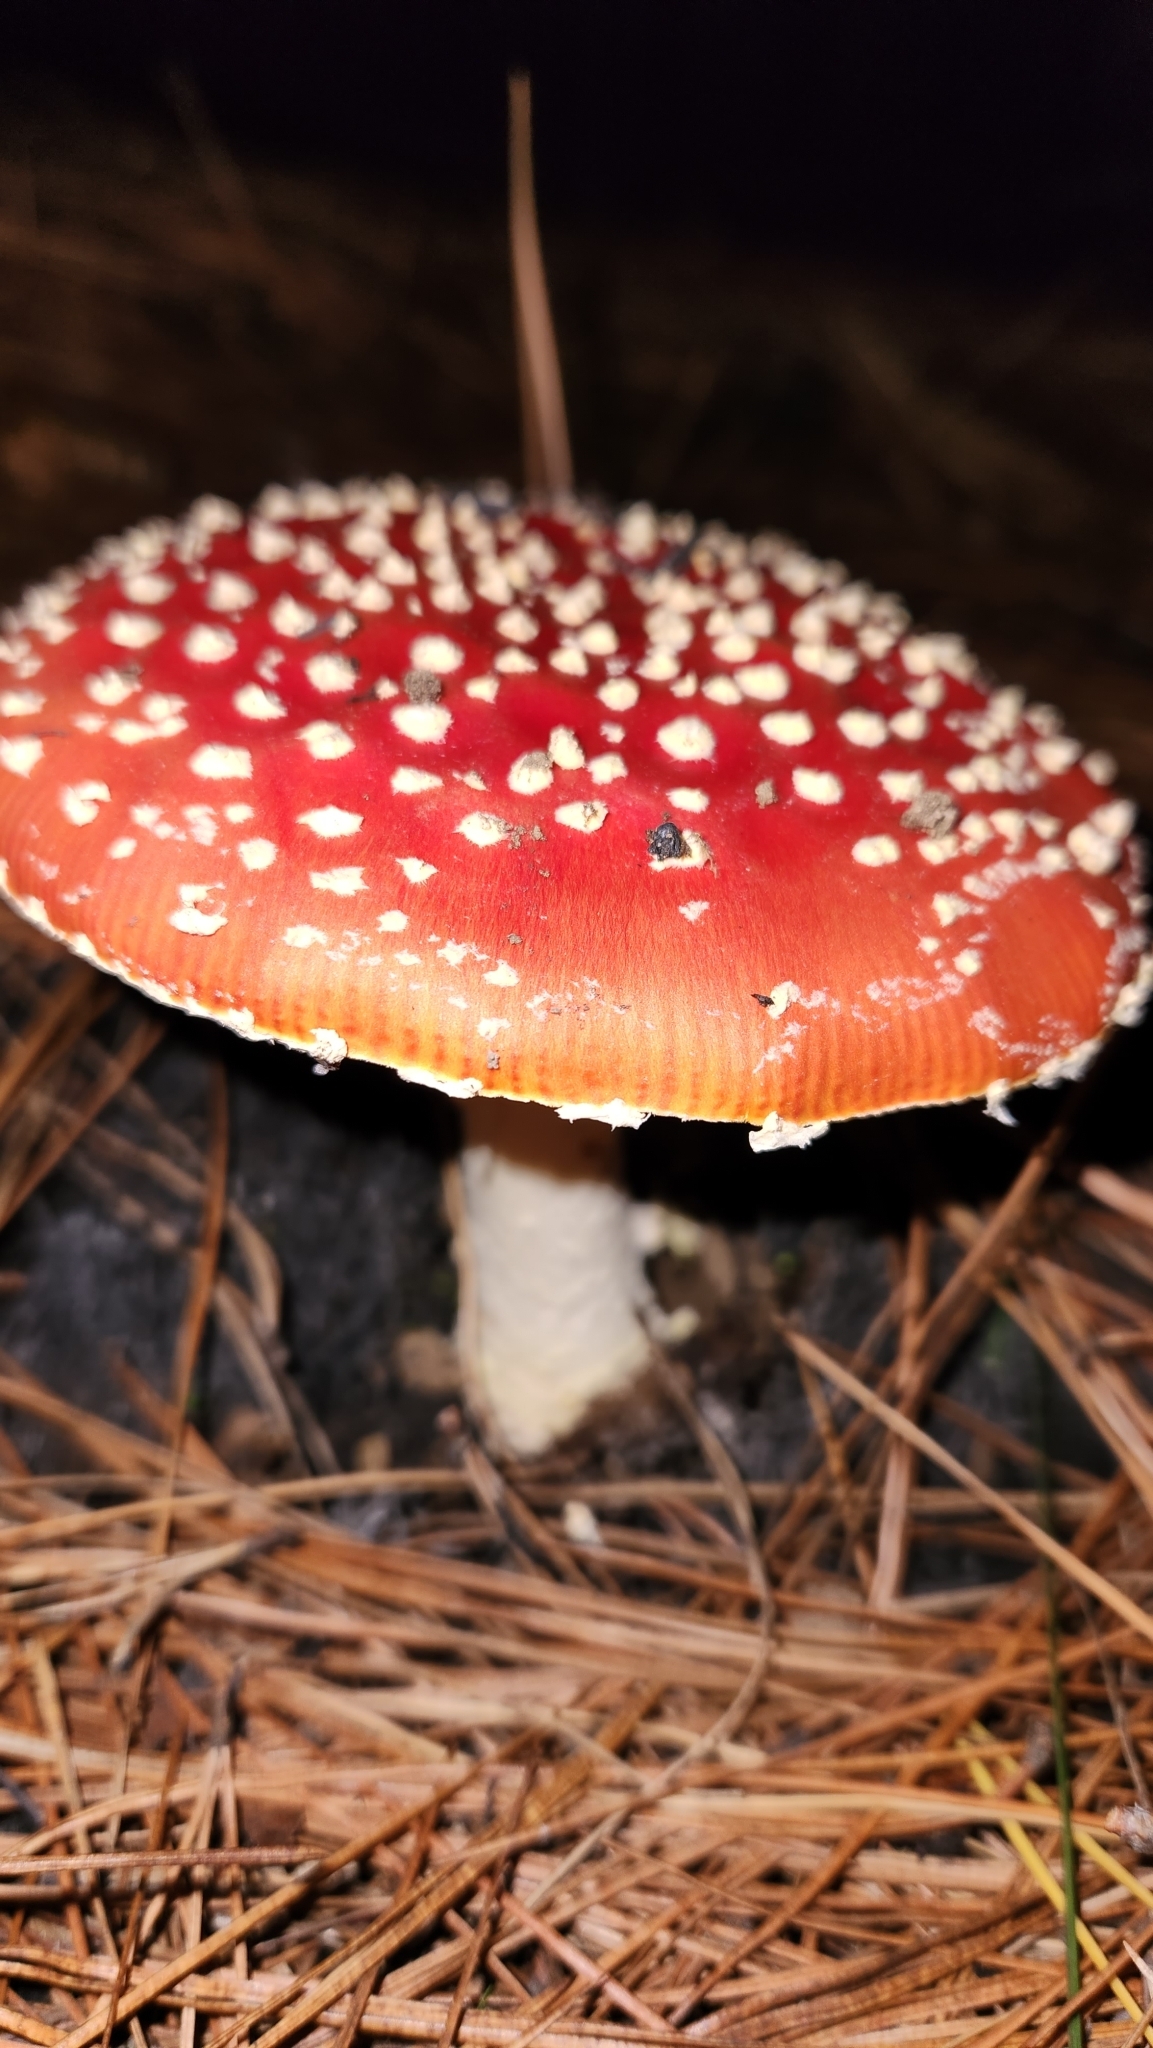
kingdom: Fungi
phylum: Basidiomycota
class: Agaricomycetes
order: Agaricales
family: Amanitaceae
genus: Amanita
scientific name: Amanita muscaria
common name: Fly agaric
